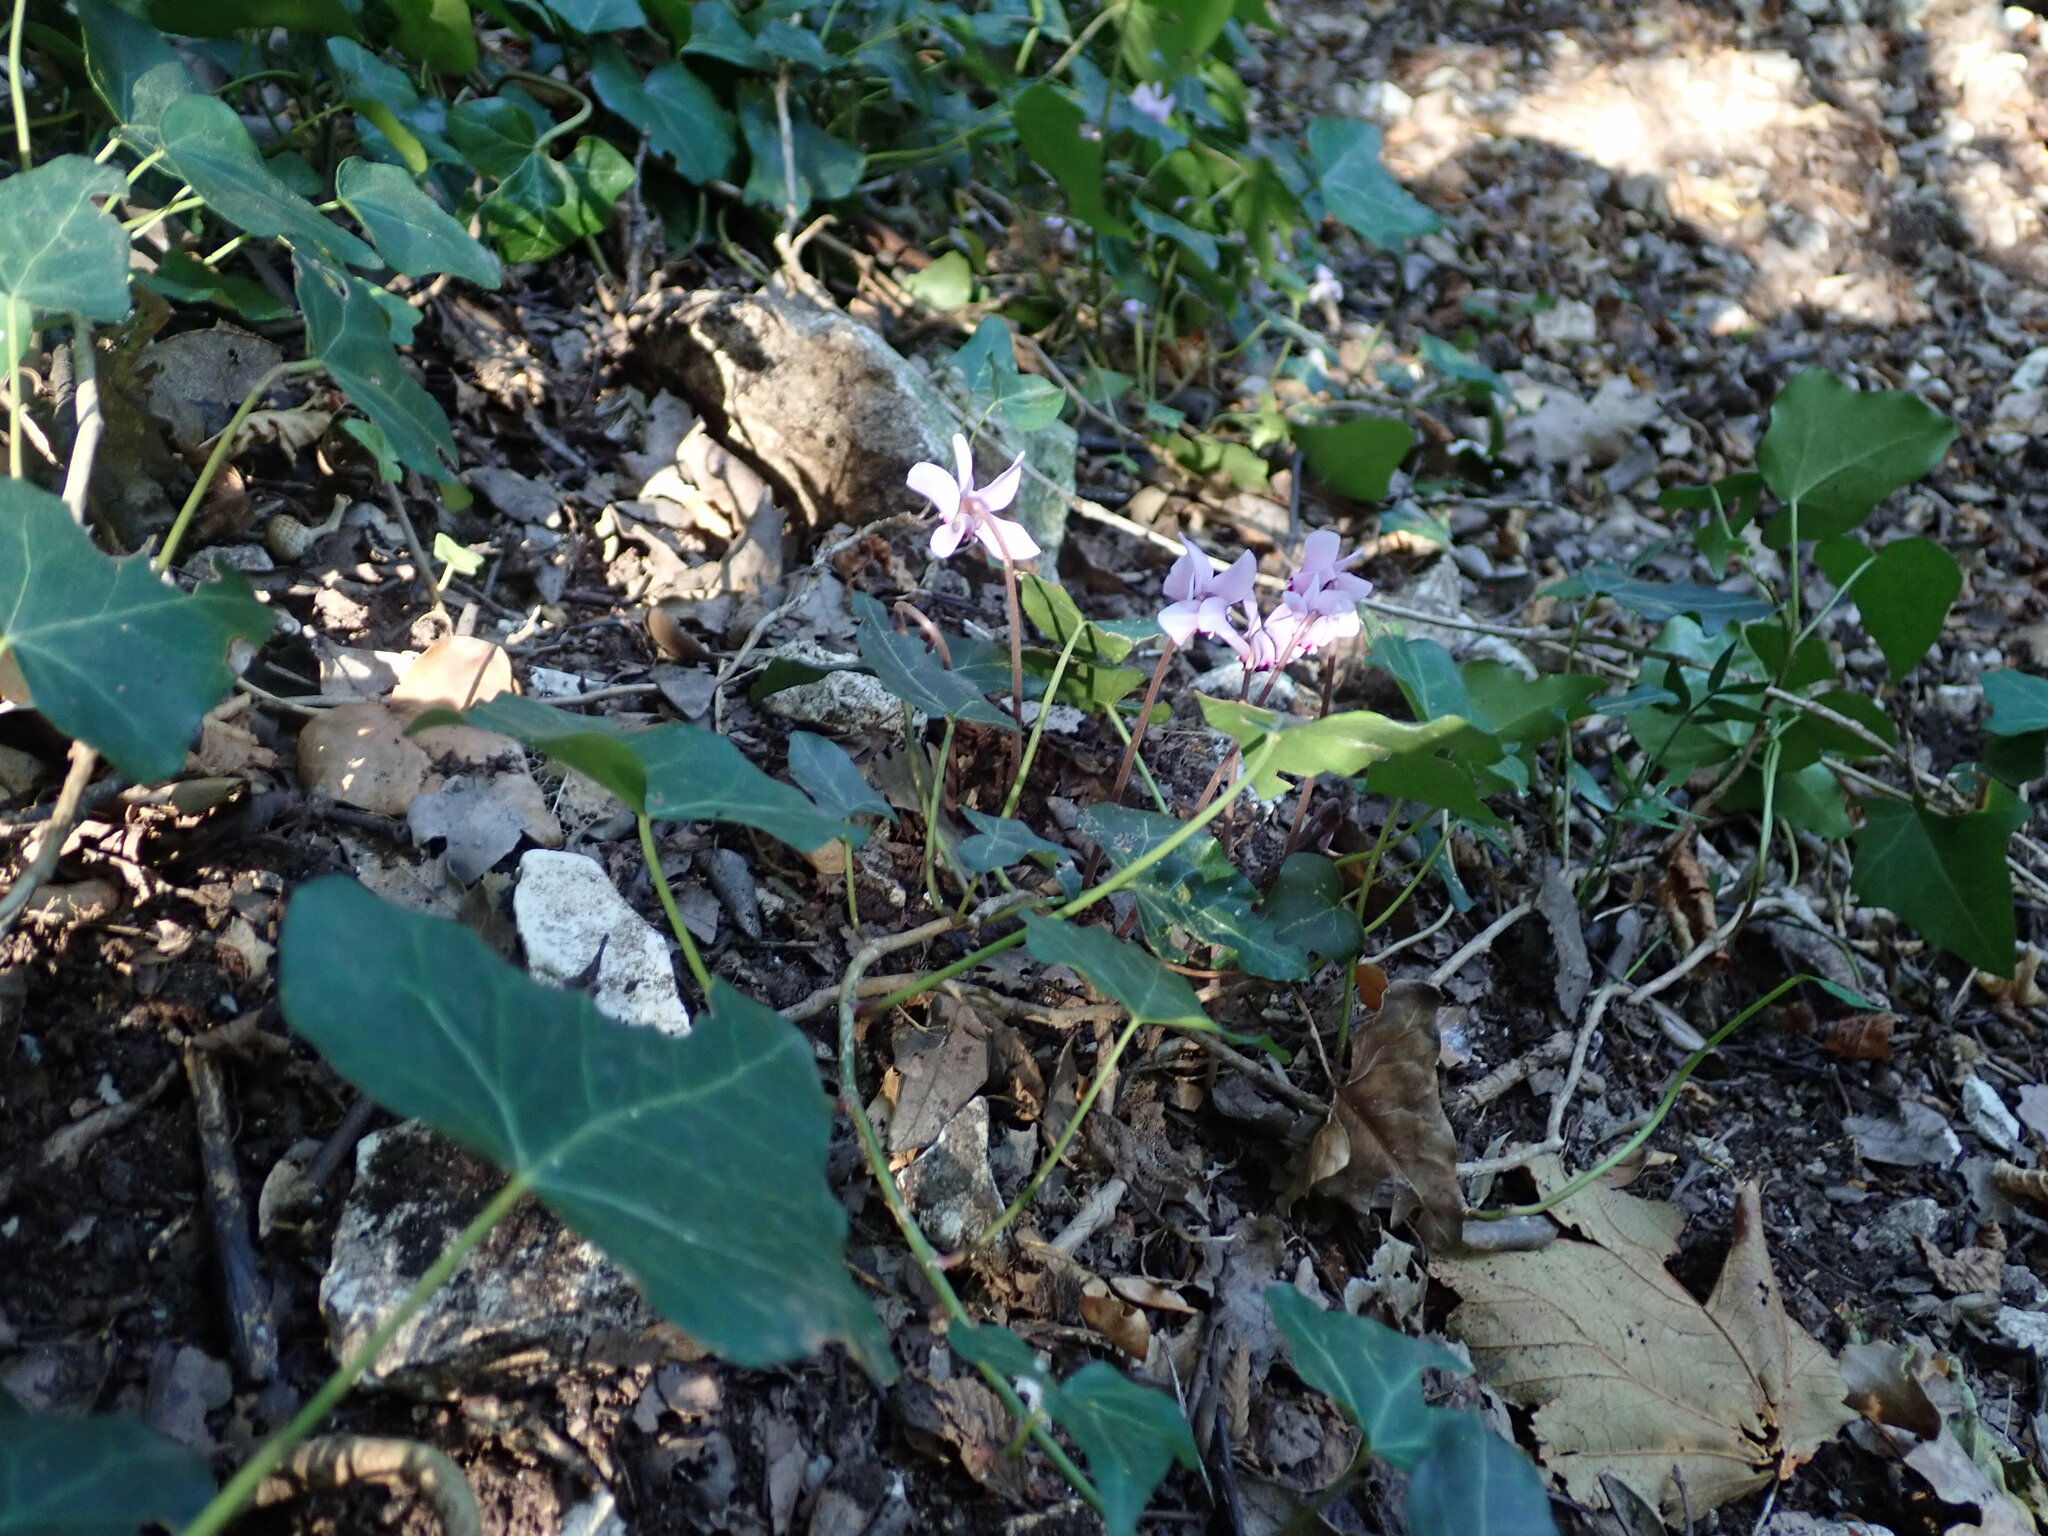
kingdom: Plantae
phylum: Tracheophyta
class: Magnoliopsida
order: Ericales
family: Primulaceae
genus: Cyclamen
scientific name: Cyclamen hederifolium
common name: Sowbread
